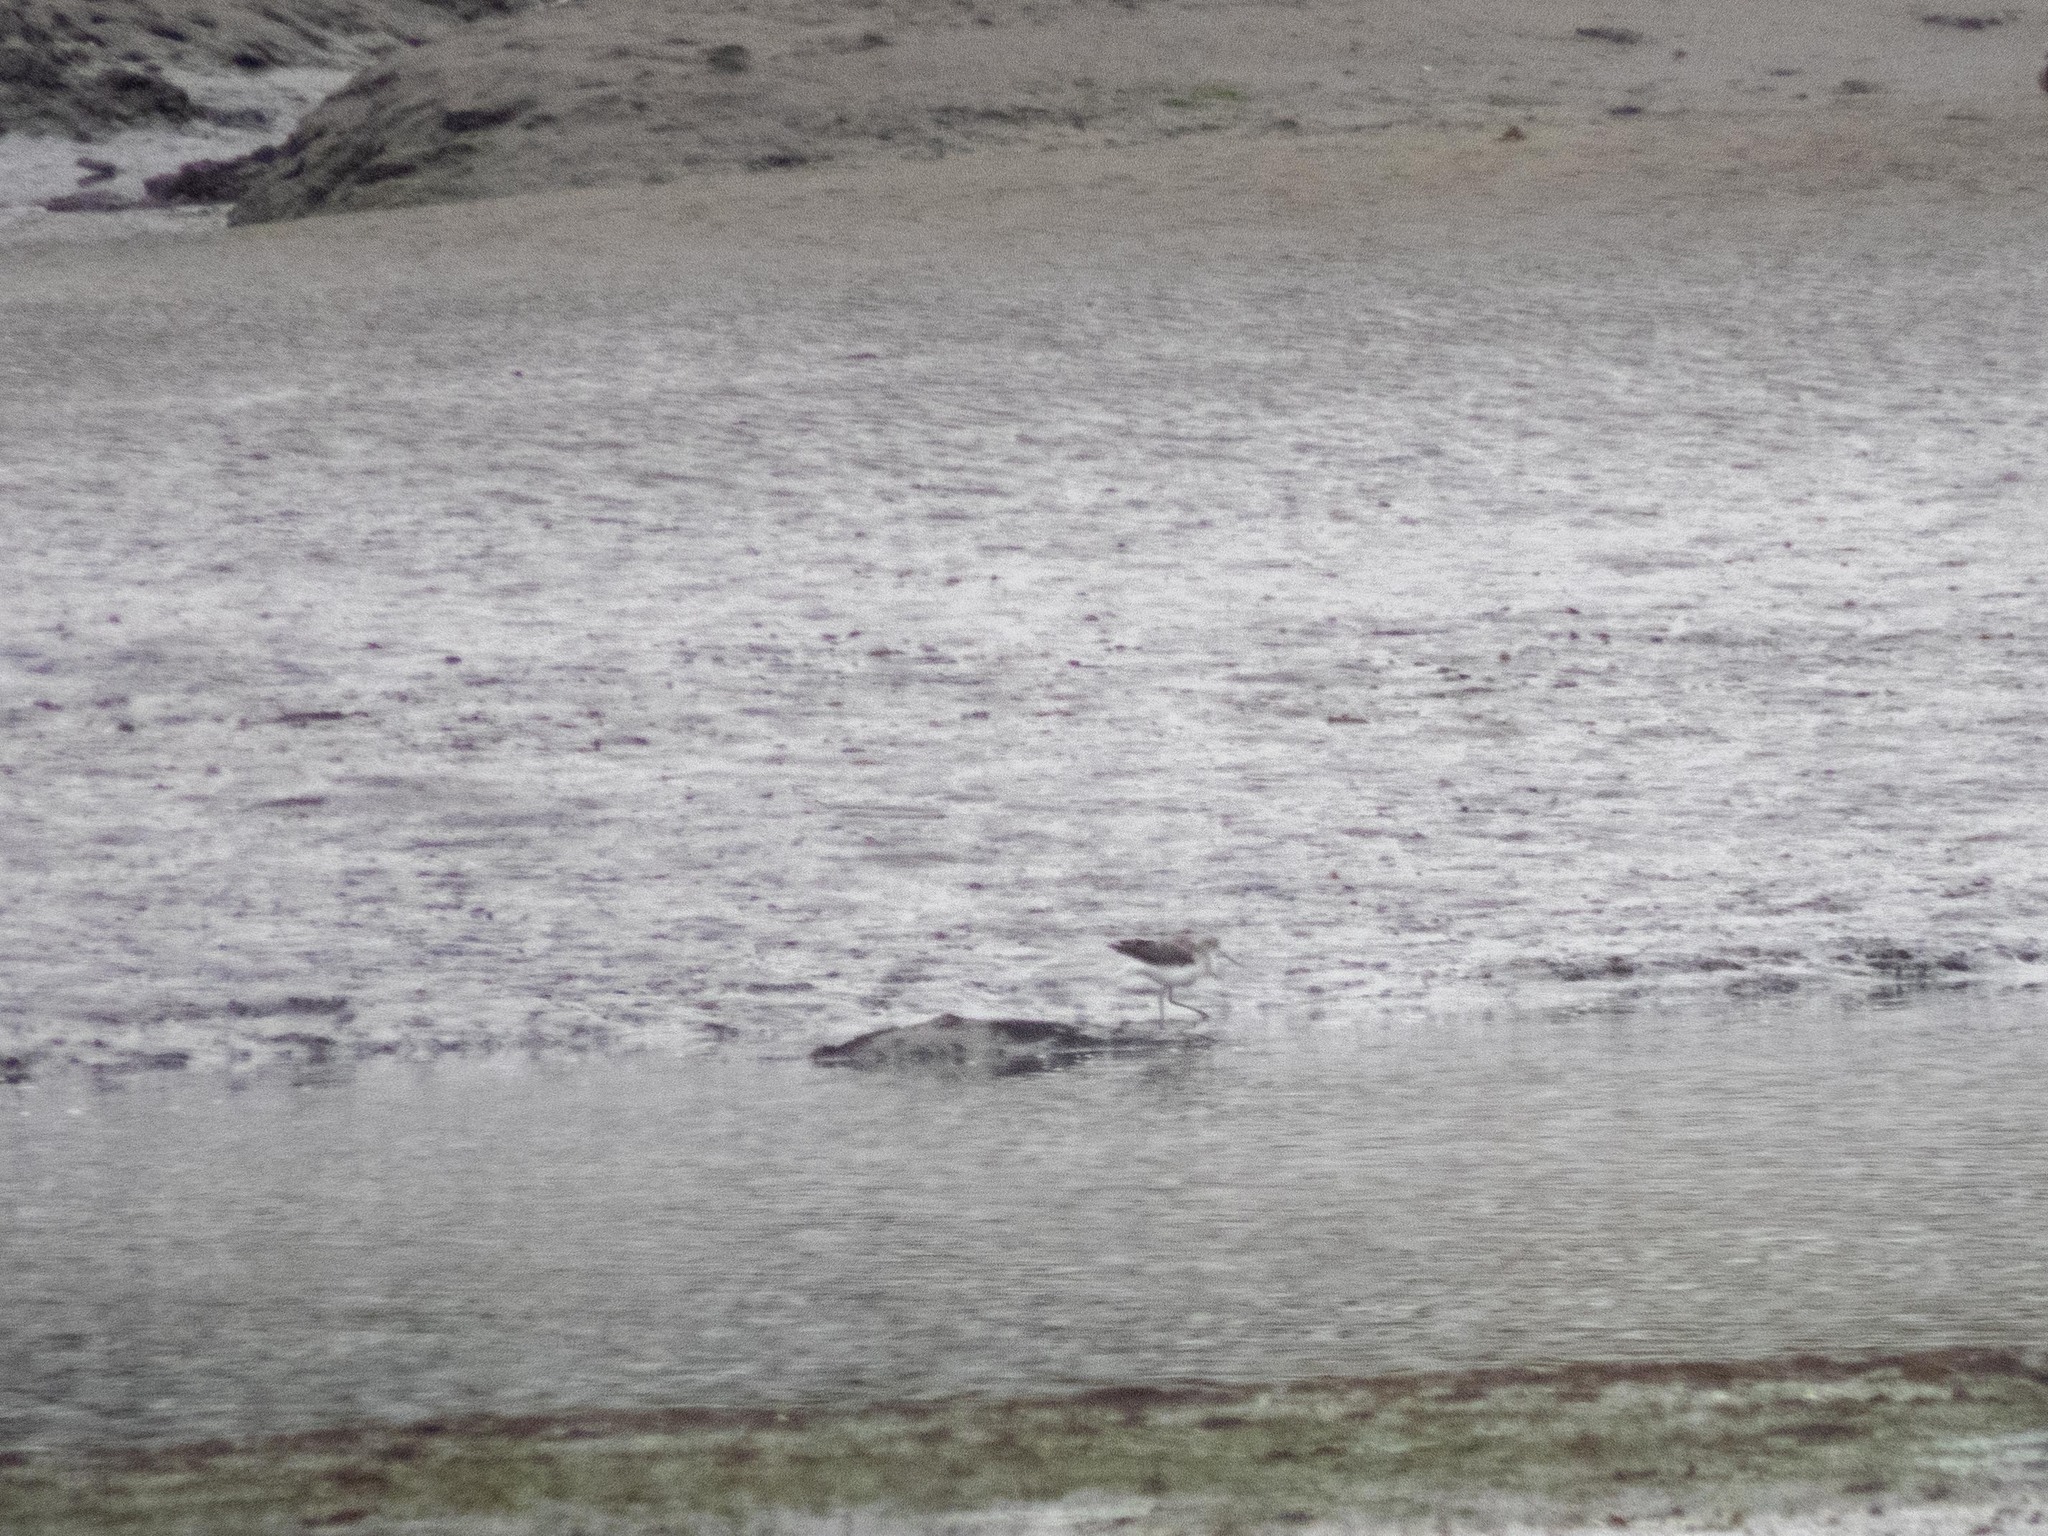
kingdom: Animalia
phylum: Chordata
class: Aves
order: Charadriiformes
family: Scolopacidae
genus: Tringa
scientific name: Tringa nebularia
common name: Common greenshank
